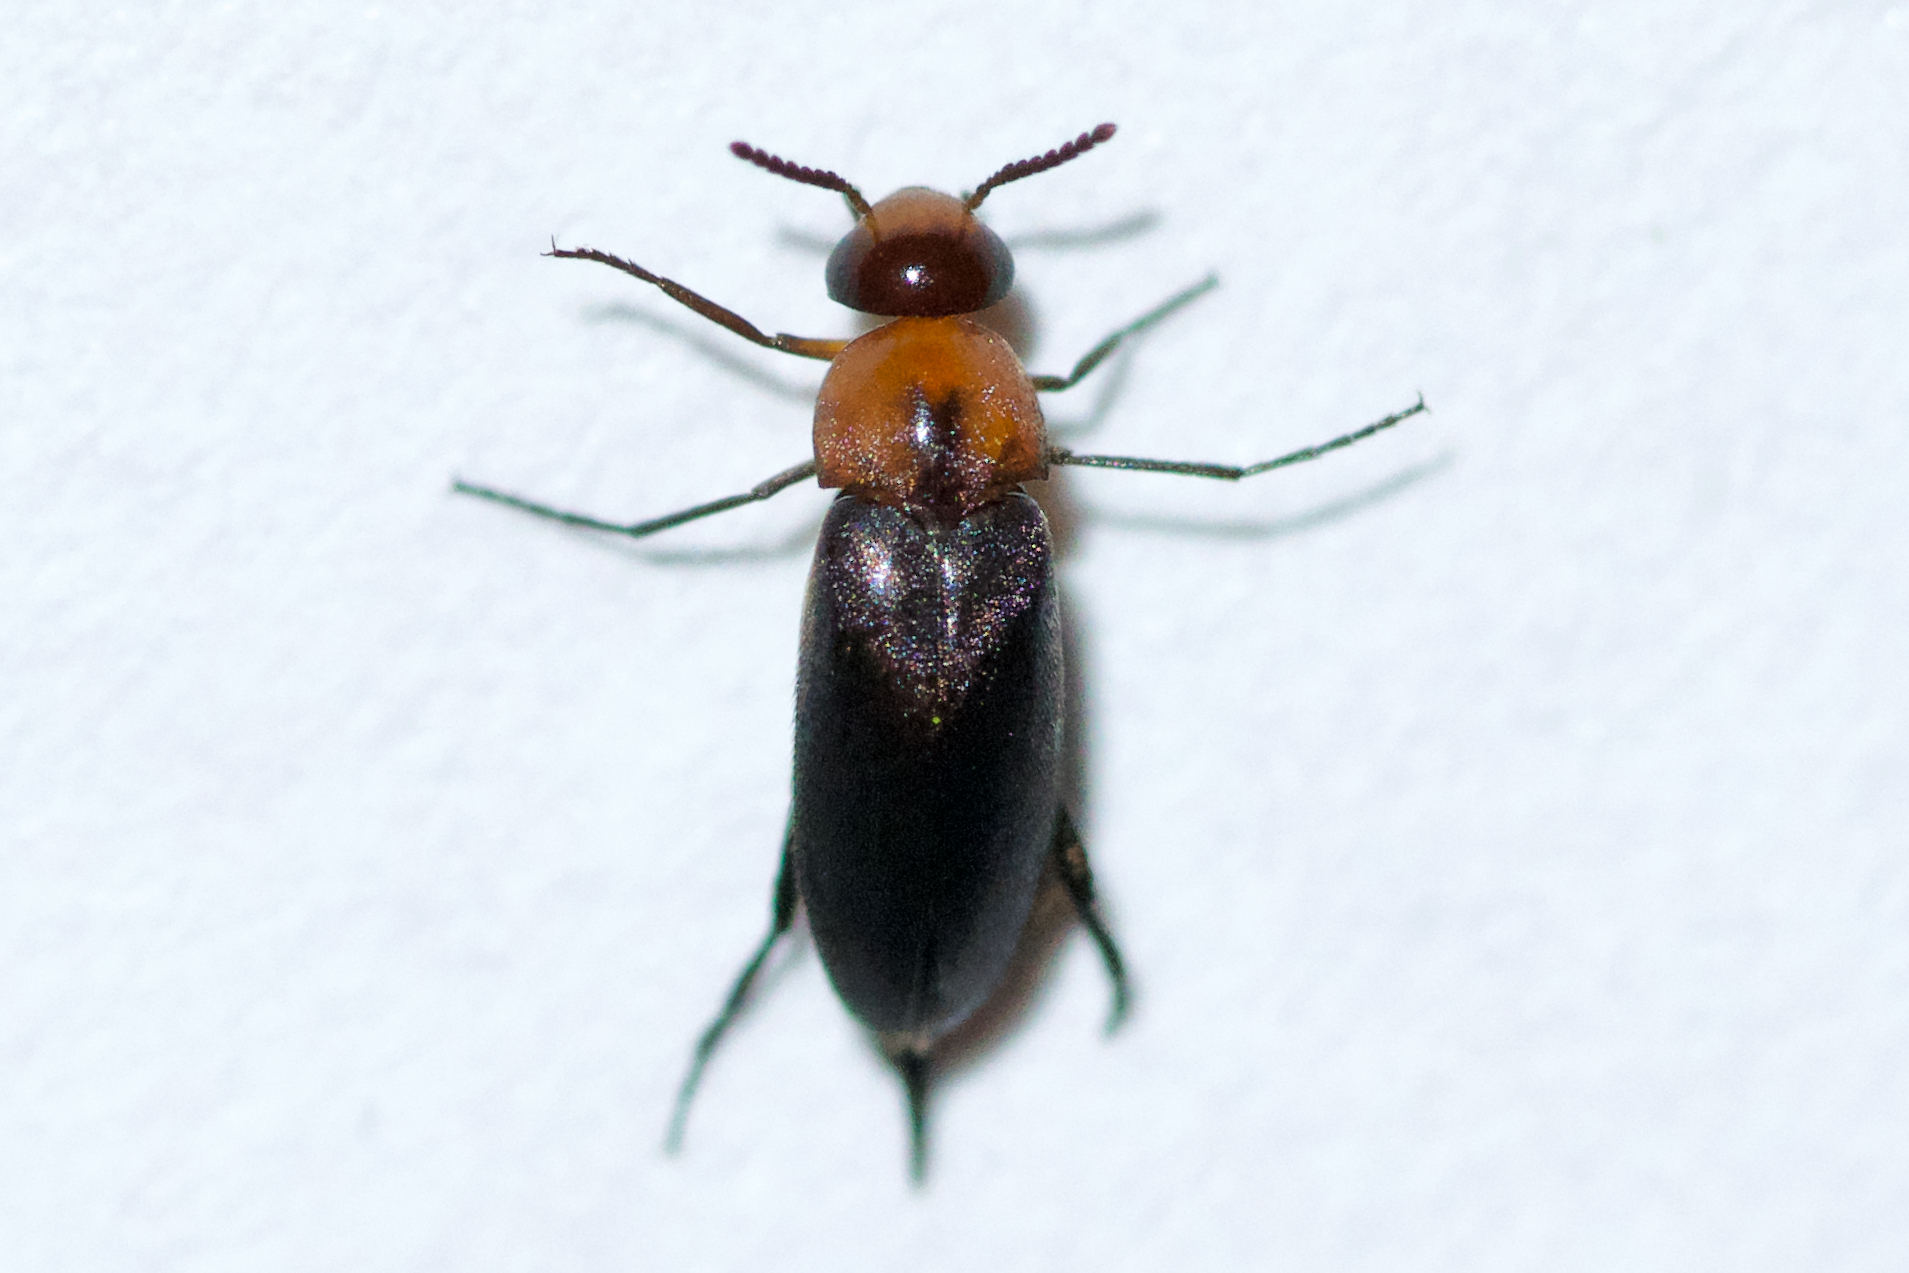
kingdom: Animalia
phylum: Arthropoda
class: Insecta
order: Coleoptera
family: Mordellidae
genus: Mordellistena
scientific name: Mordellistena cervicalis
